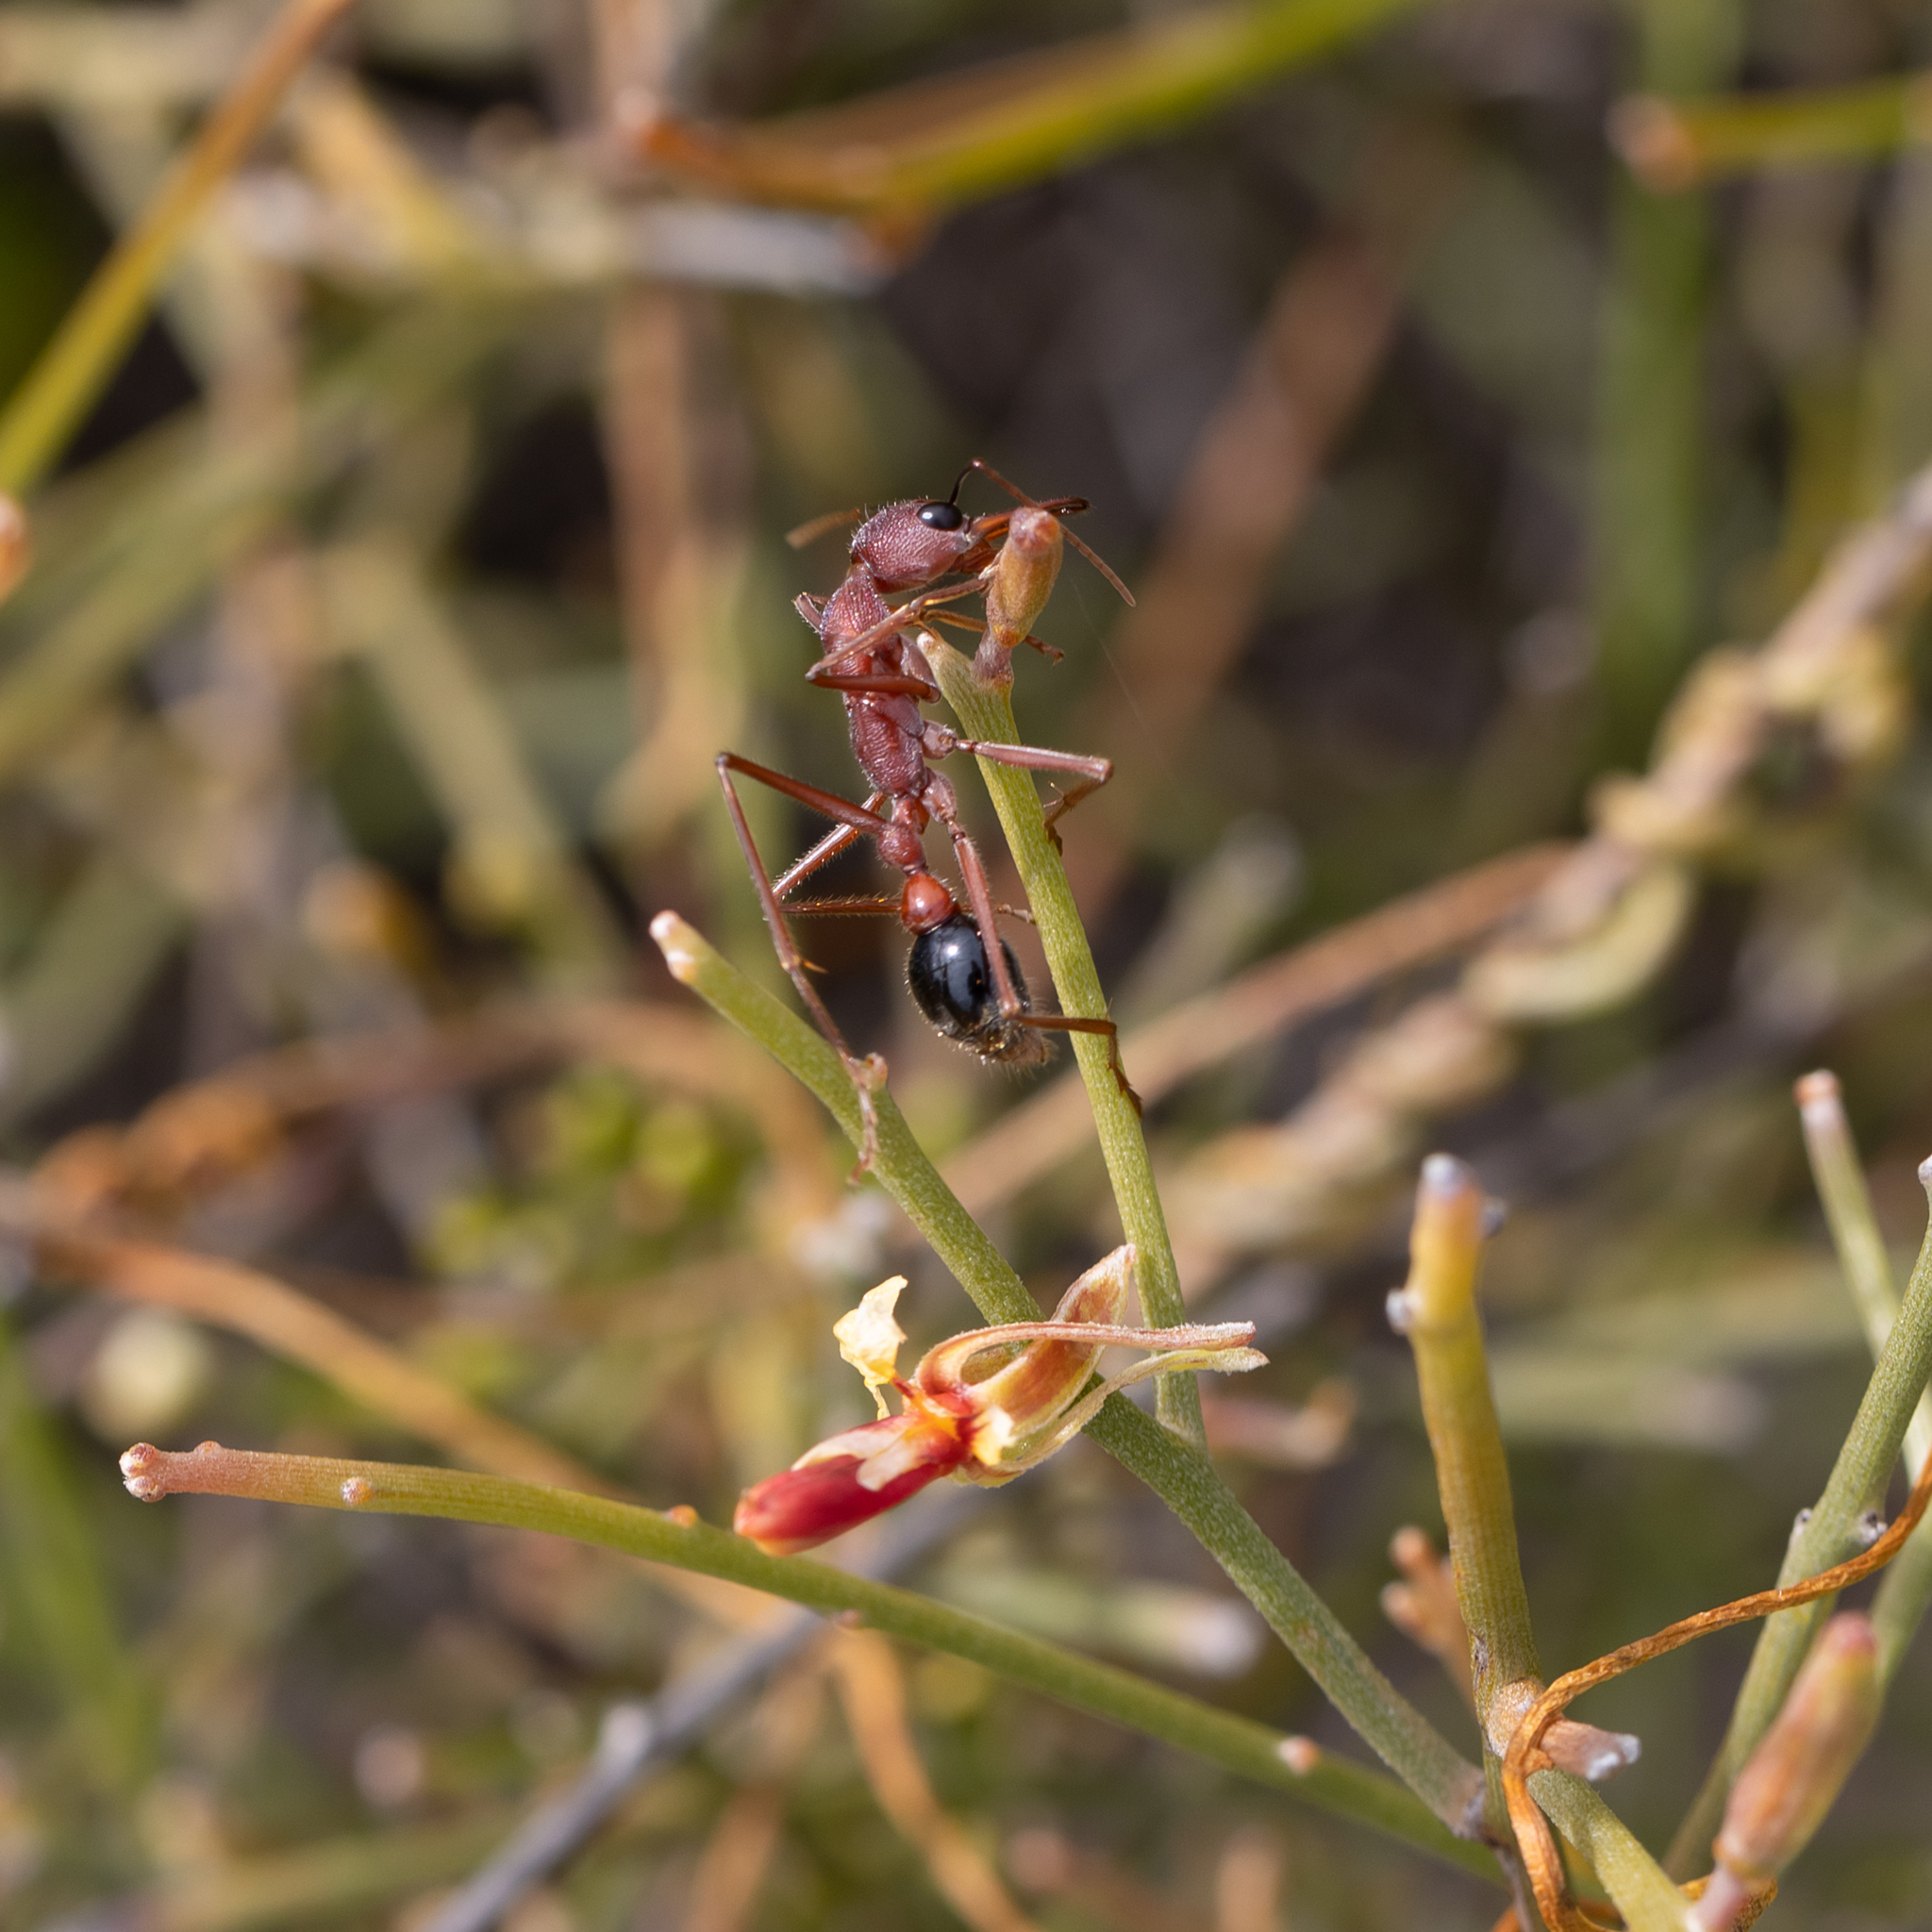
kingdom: Animalia
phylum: Arthropoda
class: Insecta
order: Hymenoptera
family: Formicidae
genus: Myrmecia
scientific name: Myrmecia analis
